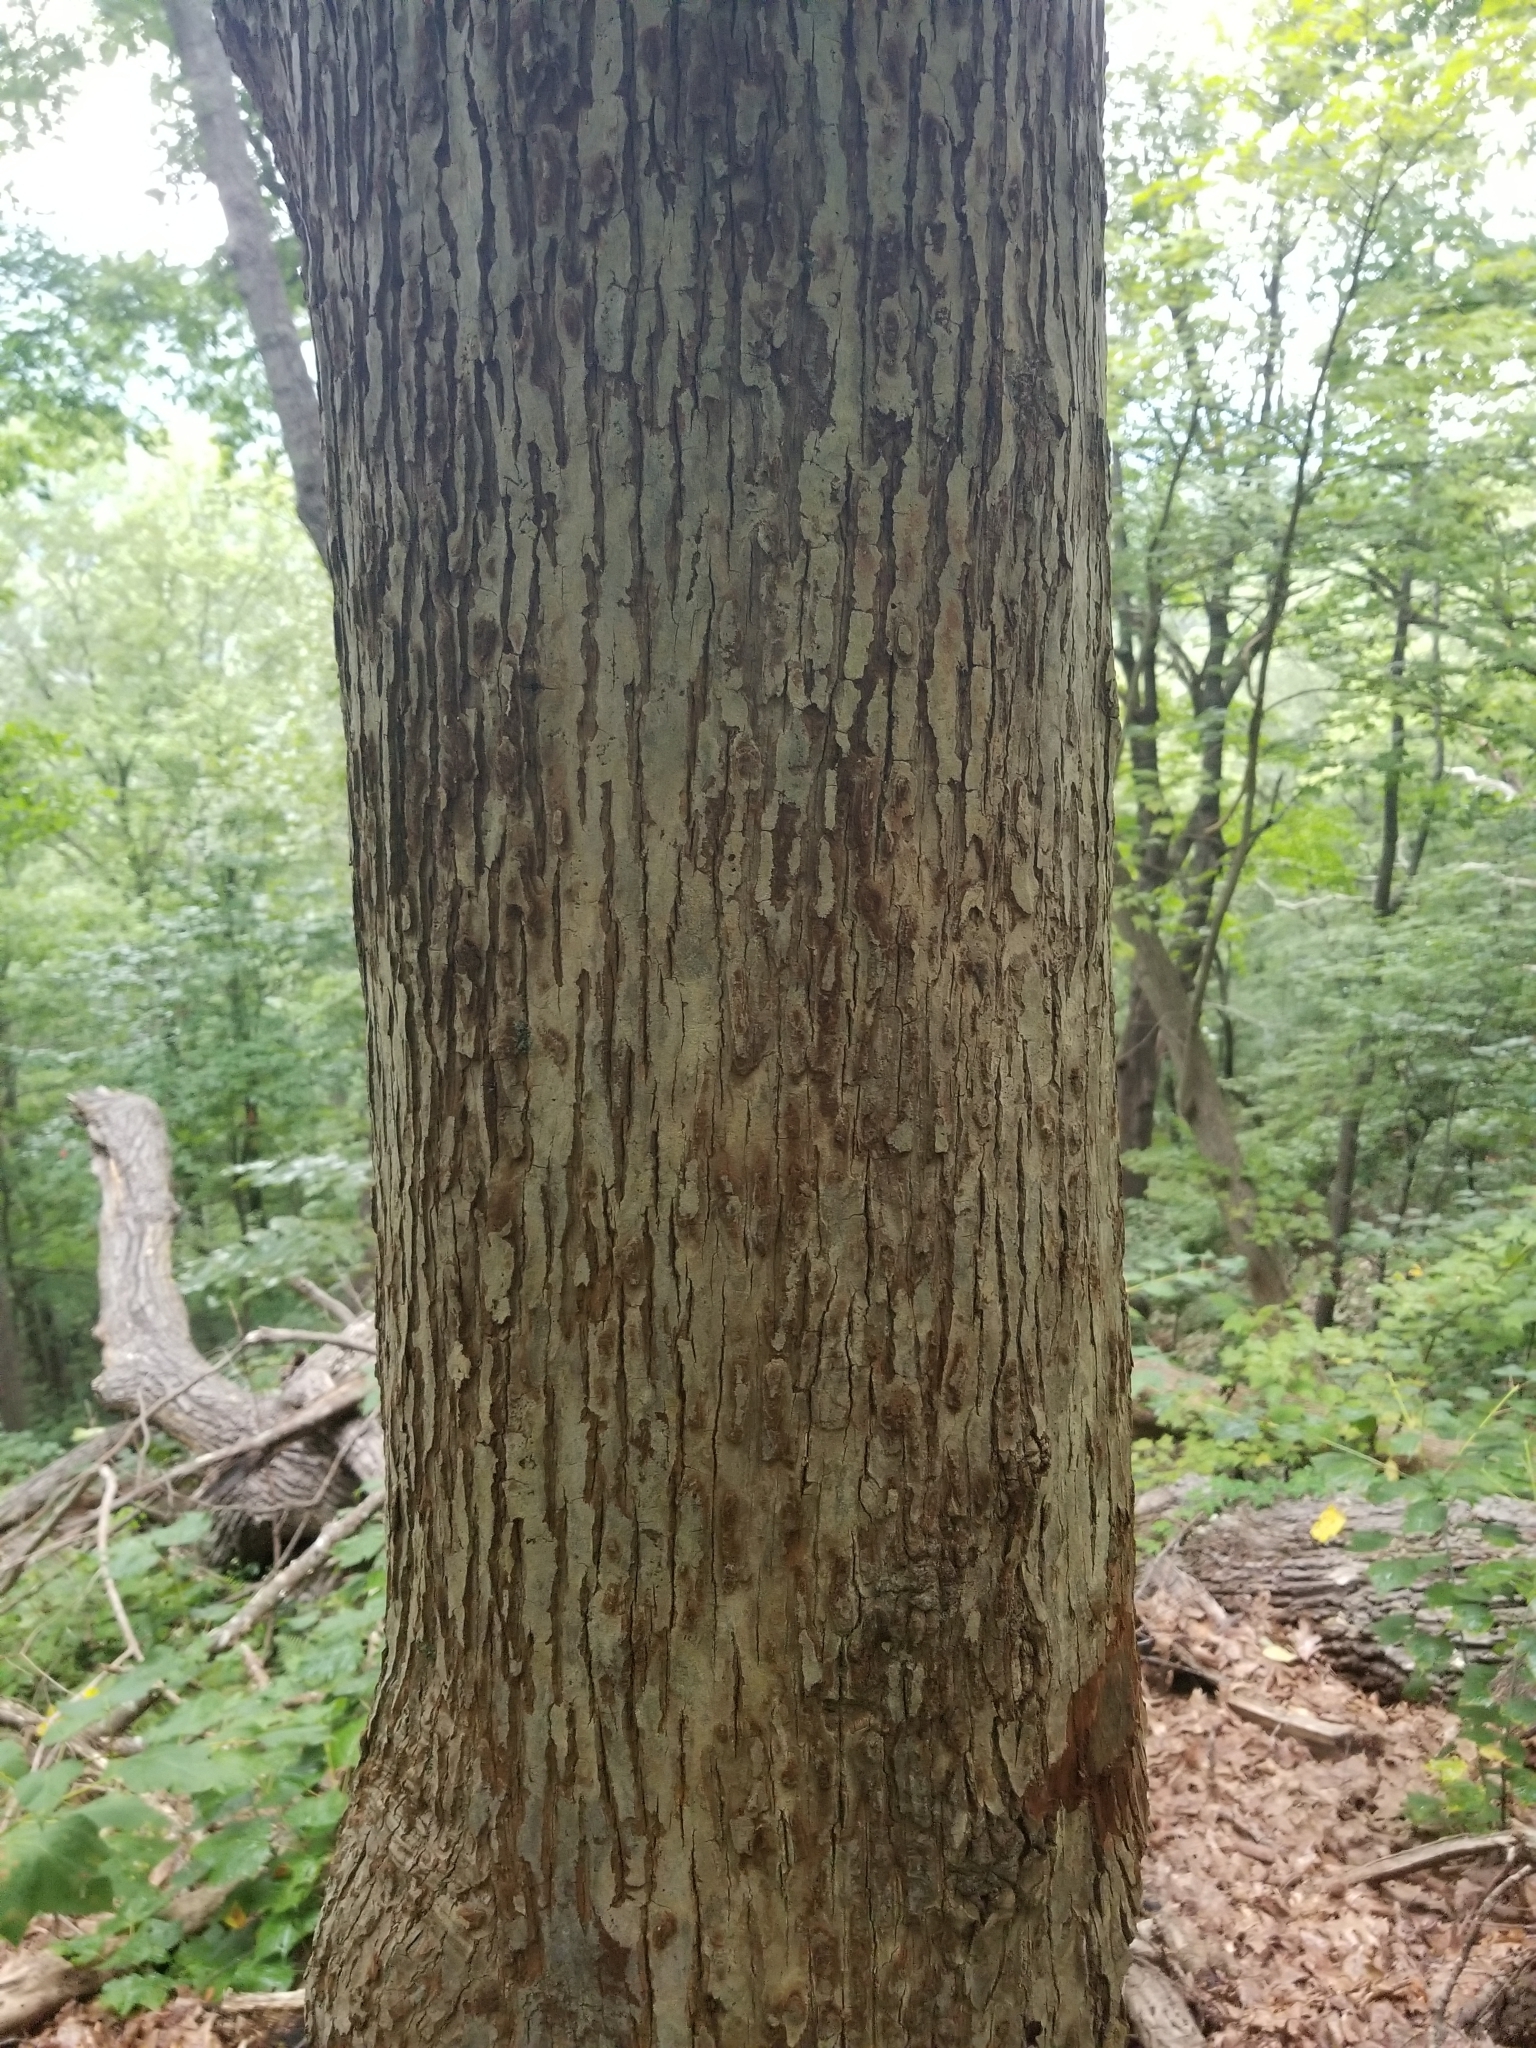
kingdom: Plantae
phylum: Tracheophyta
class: Magnoliopsida
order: Magnoliales
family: Magnoliaceae
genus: Magnolia
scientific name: Magnolia acuminata
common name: Cucumber magnolia
